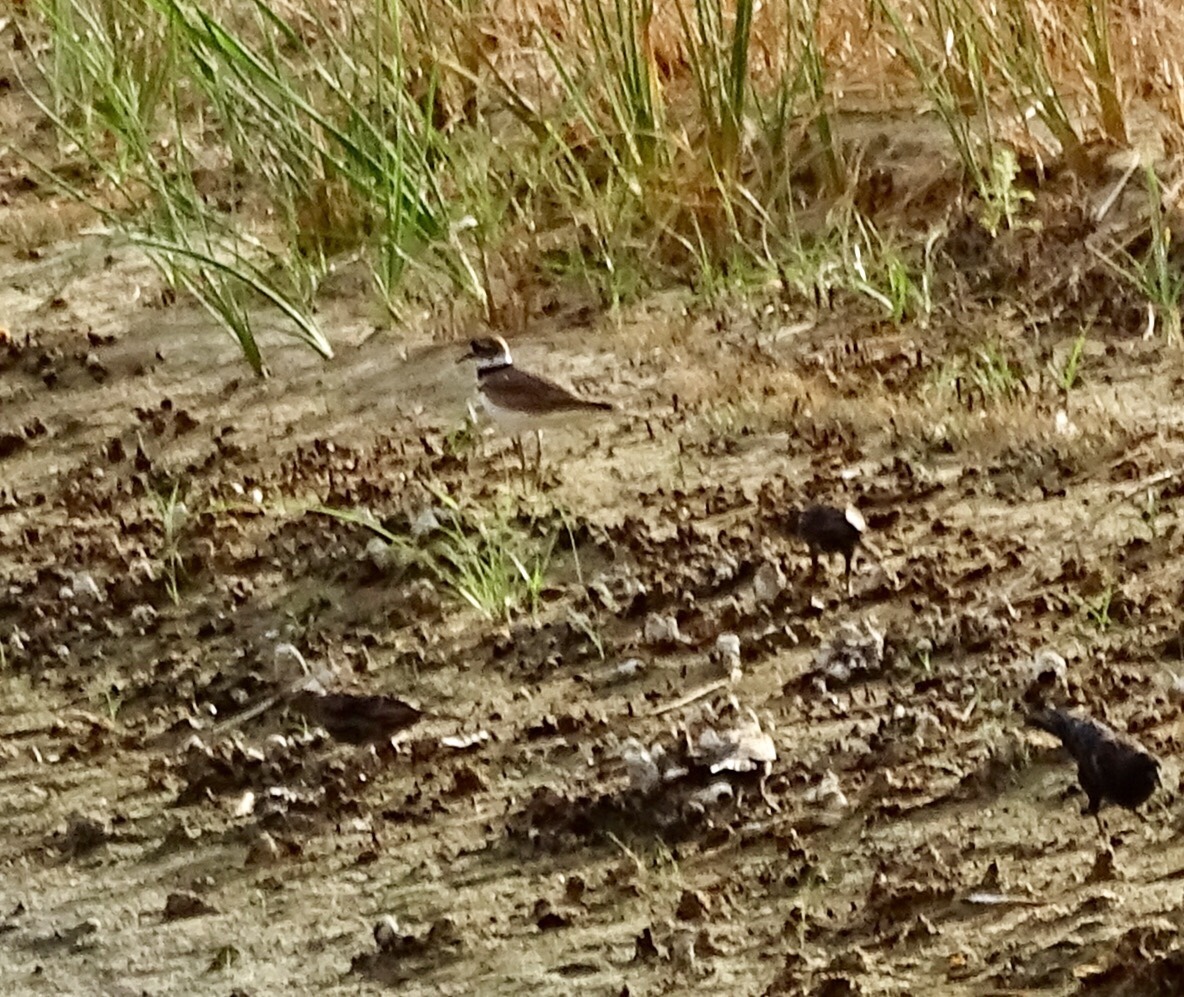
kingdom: Animalia
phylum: Chordata
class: Aves
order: Charadriiformes
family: Charadriidae
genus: Charadrius
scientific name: Charadrius vociferus
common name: Killdeer
